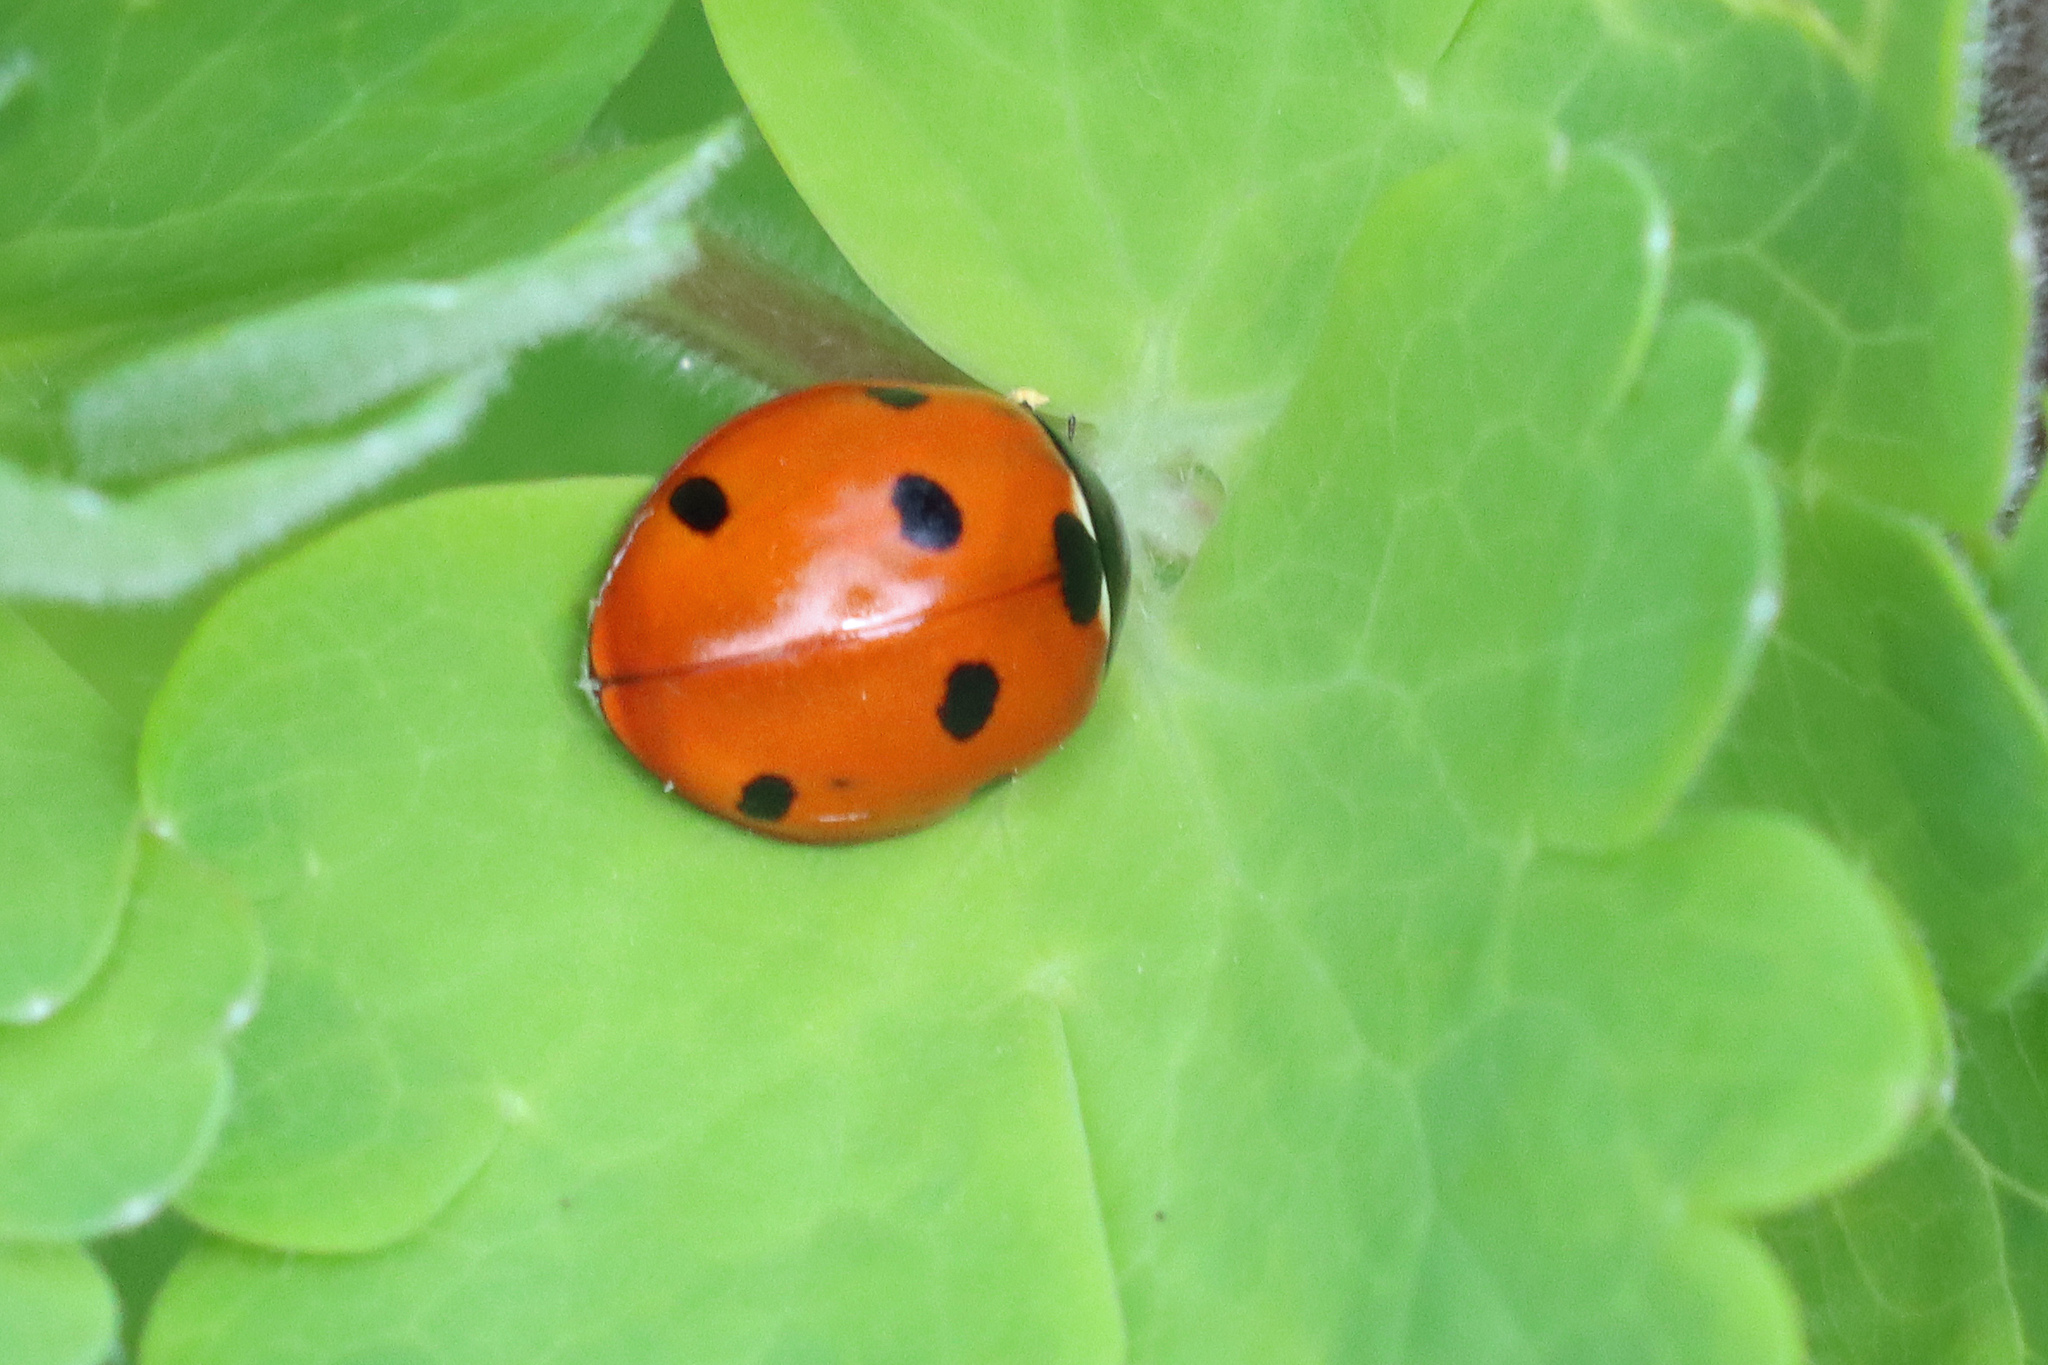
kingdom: Animalia
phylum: Arthropoda
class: Insecta
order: Coleoptera
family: Coccinellidae
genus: Coccinella
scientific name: Coccinella septempunctata
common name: Sevenspotted lady beetle
